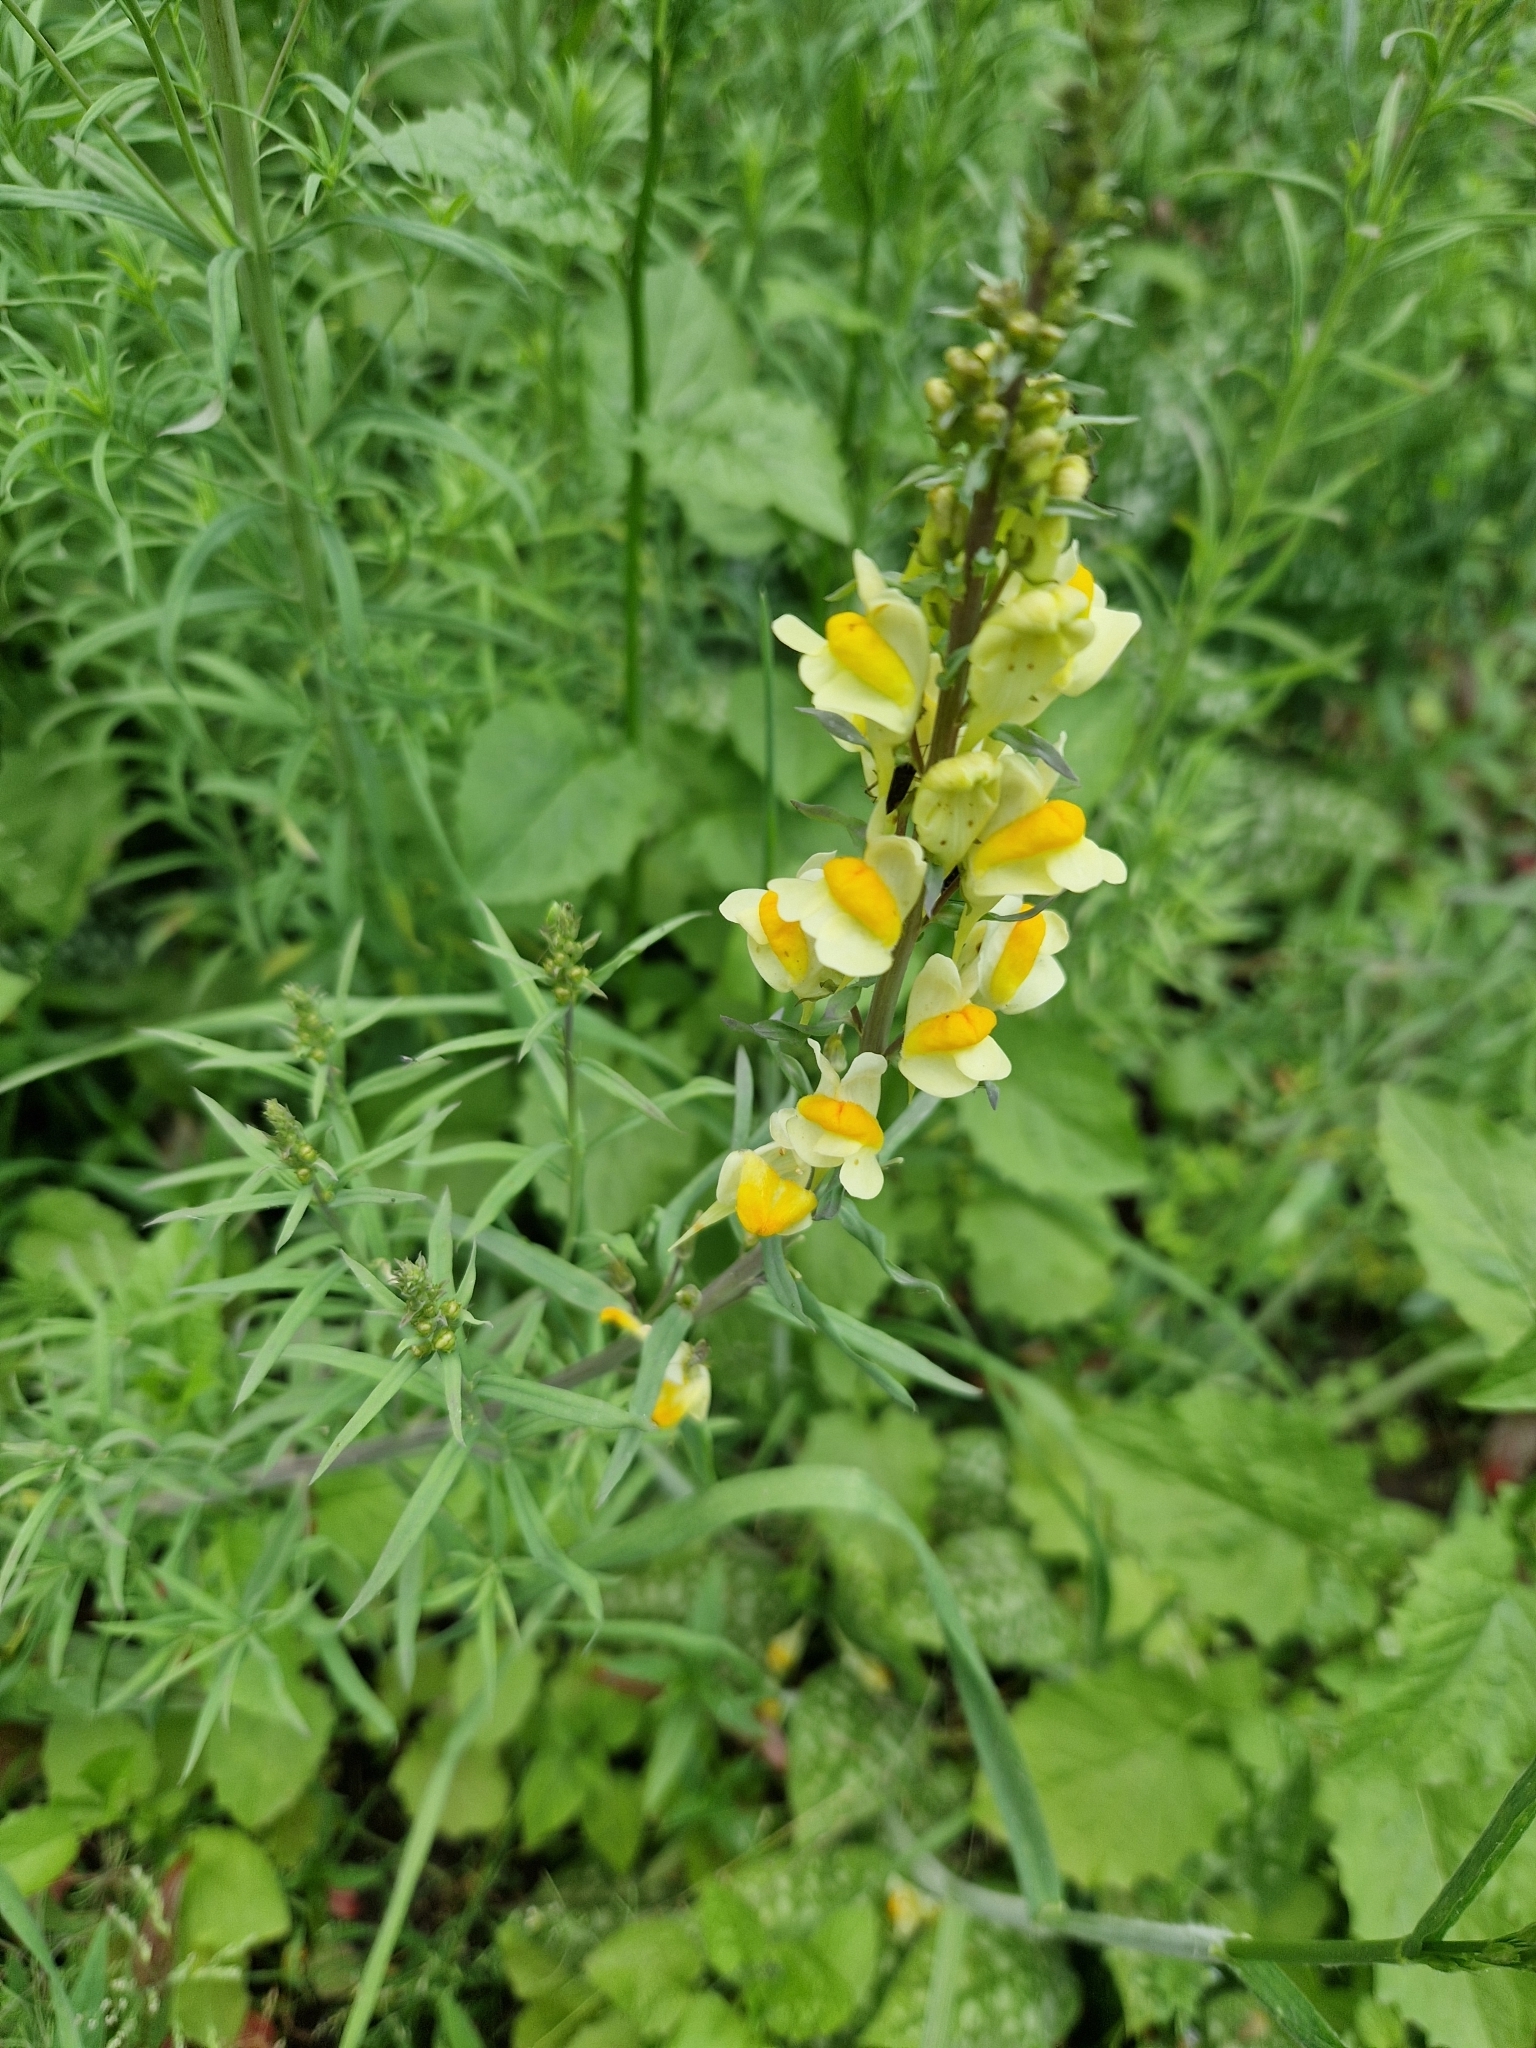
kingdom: Plantae
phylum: Tracheophyta
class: Magnoliopsida
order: Lamiales
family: Plantaginaceae
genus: Linaria
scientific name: Linaria vulgaris
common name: Butter and eggs
